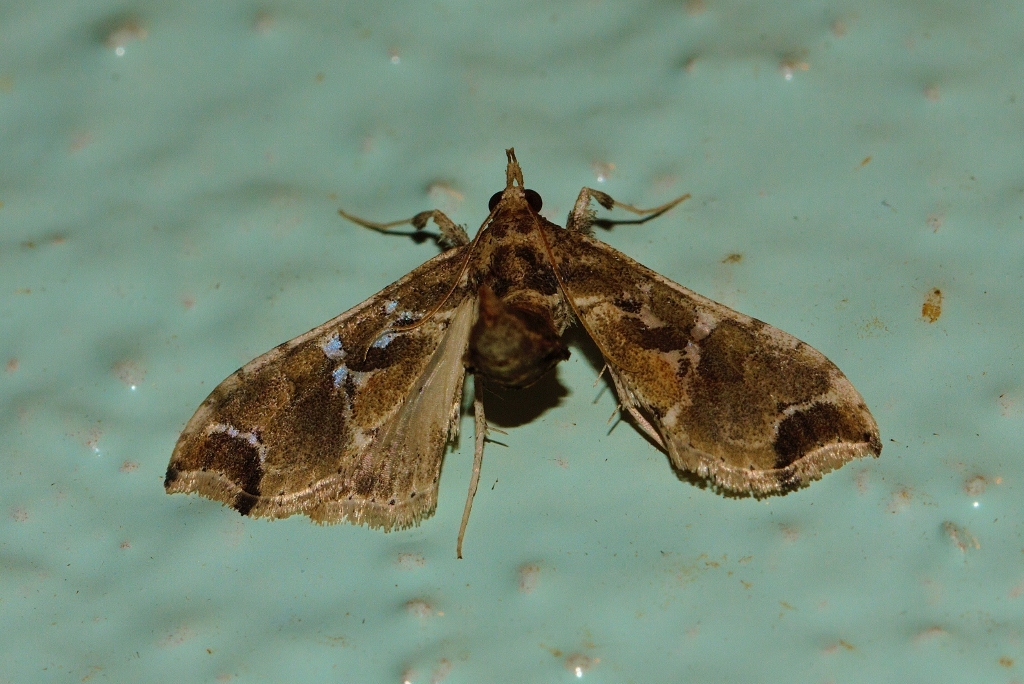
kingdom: Animalia
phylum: Arthropoda
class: Insecta
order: Lepidoptera
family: Crambidae
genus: Leucinodes
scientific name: Leucinodes laisalis
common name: African tomato pearl
